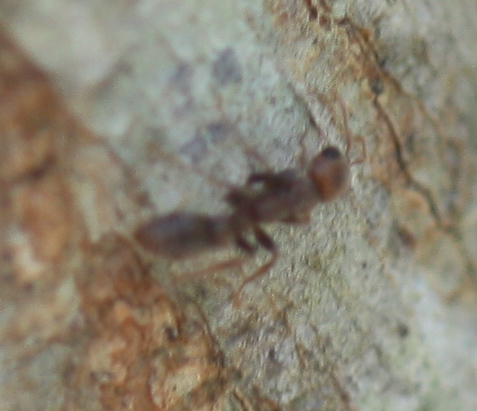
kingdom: Animalia
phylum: Arthropoda
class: Insecta
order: Hymenoptera
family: Formicidae
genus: Pseudomyrmex
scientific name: Pseudomyrmex ferrugineus
